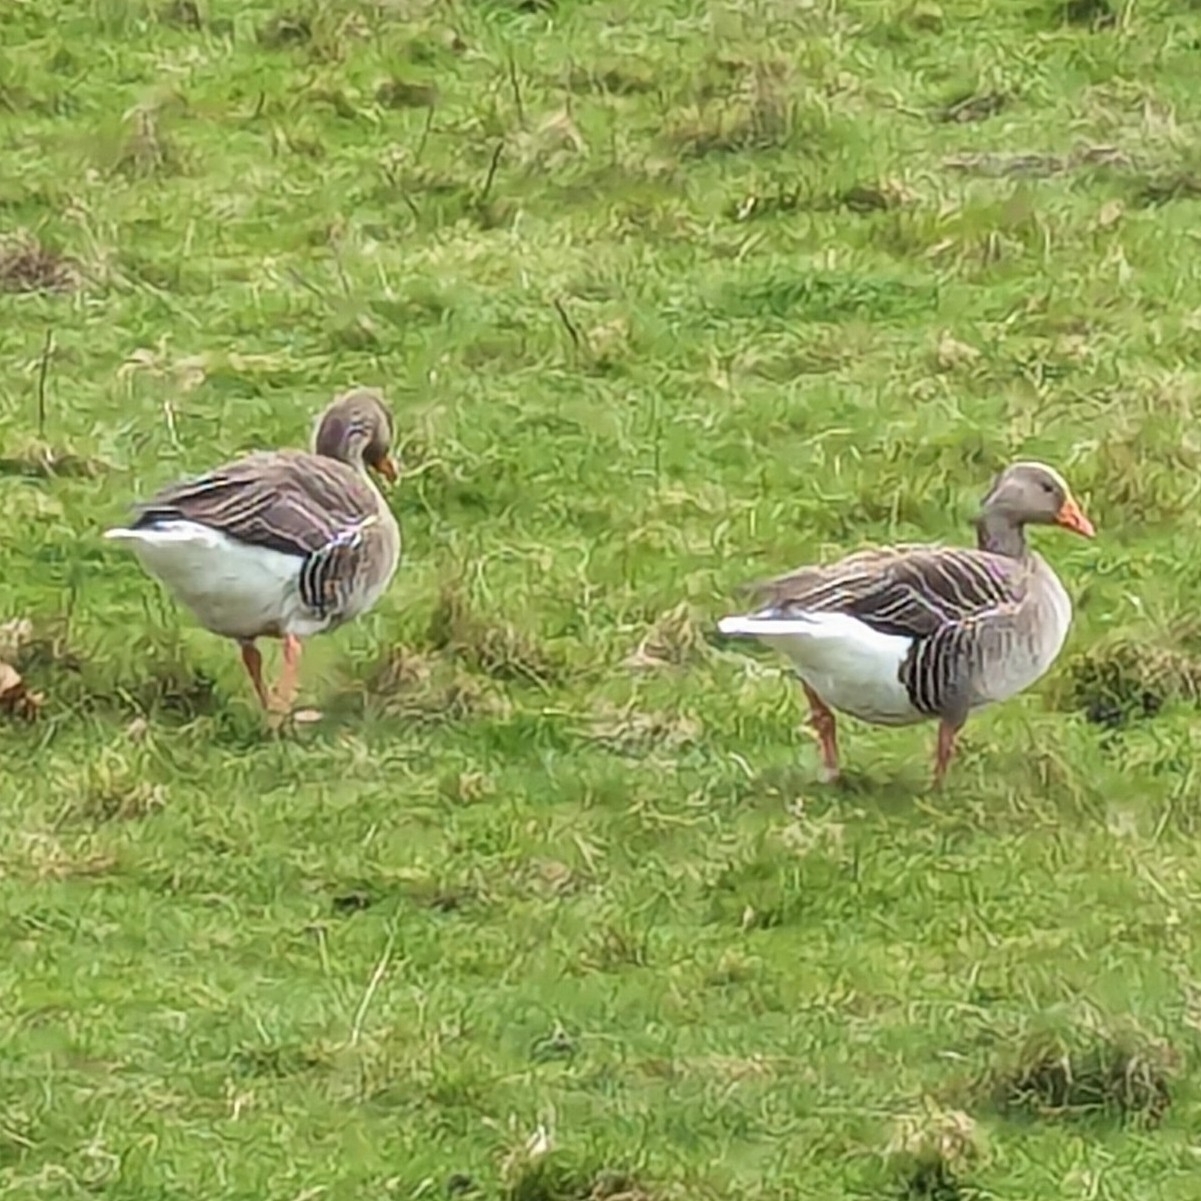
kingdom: Animalia
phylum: Chordata
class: Aves
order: Anseriformes
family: Anatidae
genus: Anser
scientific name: Anser anser
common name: Greylag goose
